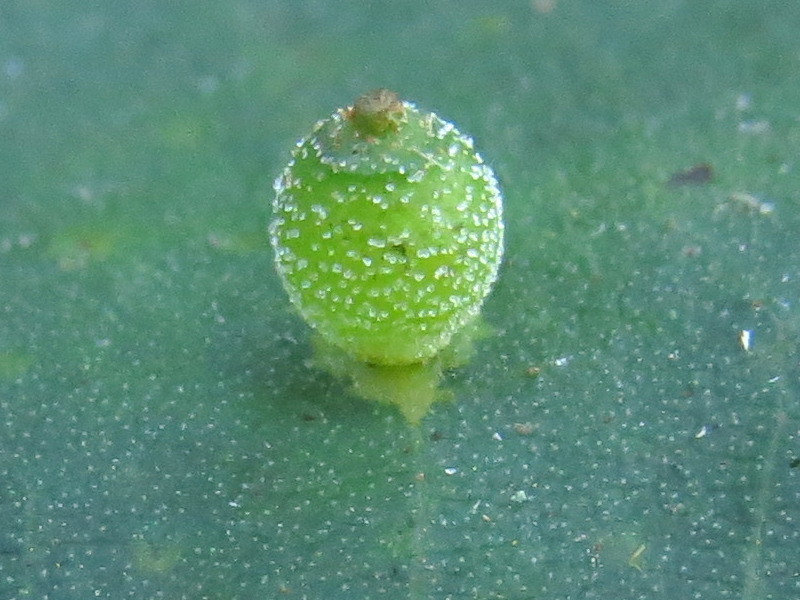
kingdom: Animalia
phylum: Arthropoda
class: Insecta
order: Diptera
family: Cecidomyiidae
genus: Caryomyia
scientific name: Caryomyia viscidolium
